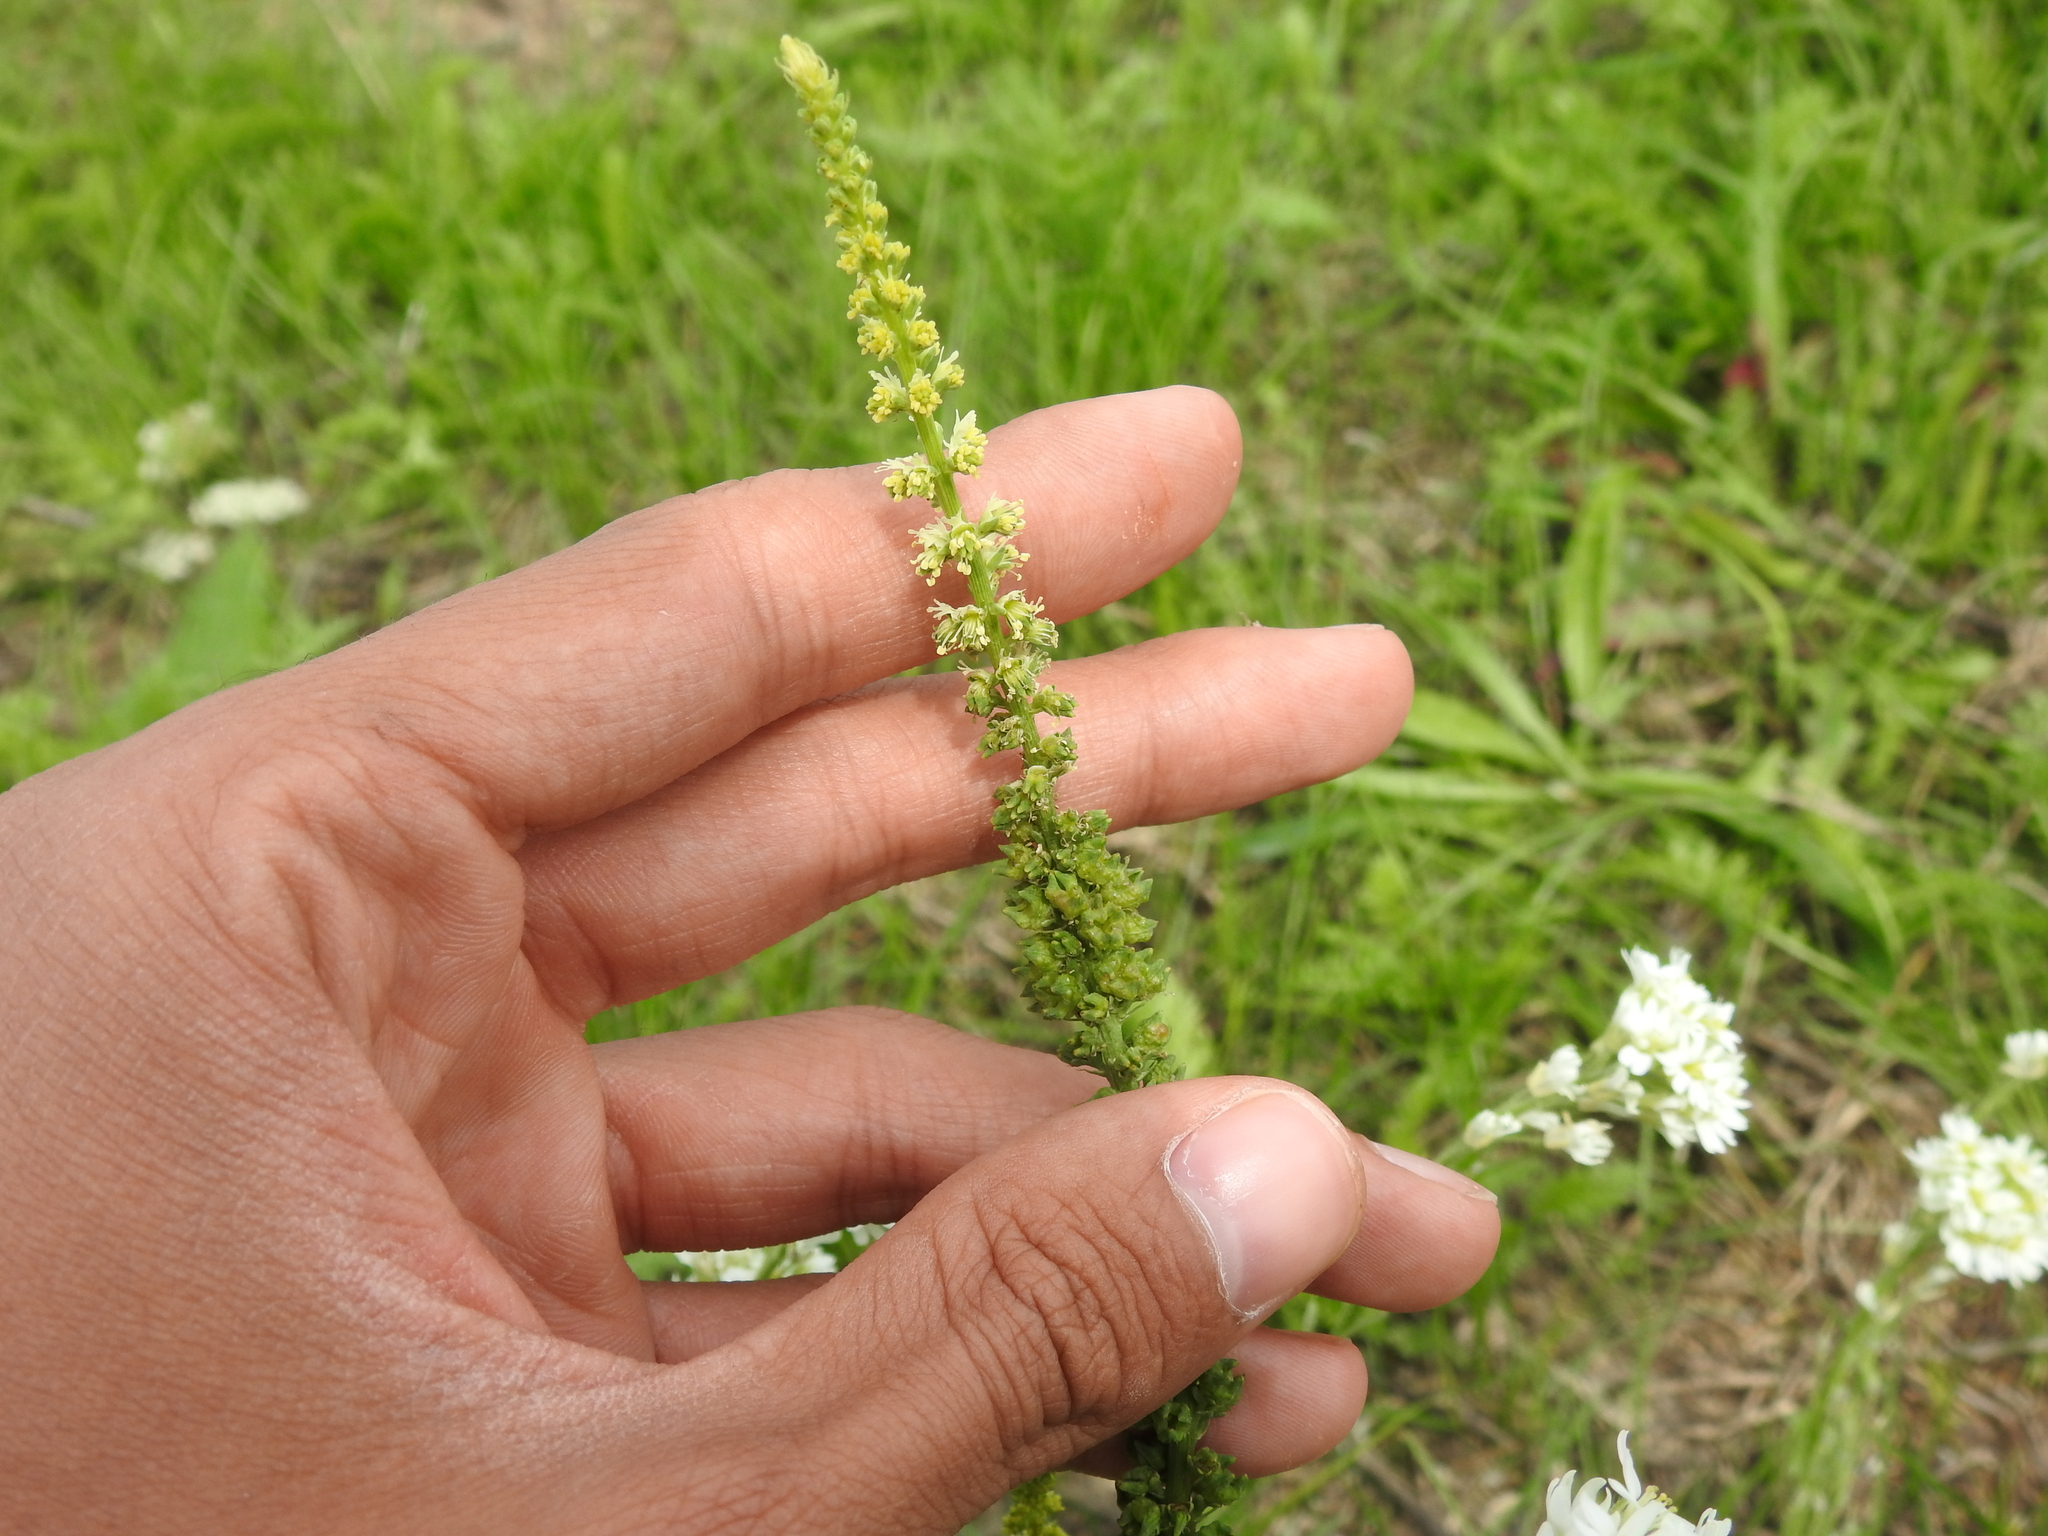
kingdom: Plantae
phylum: Tracheophyta
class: Magnoliopsida
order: Brassicales
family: Resedaceae
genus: Reseda
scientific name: Reseda luteola
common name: Weld
